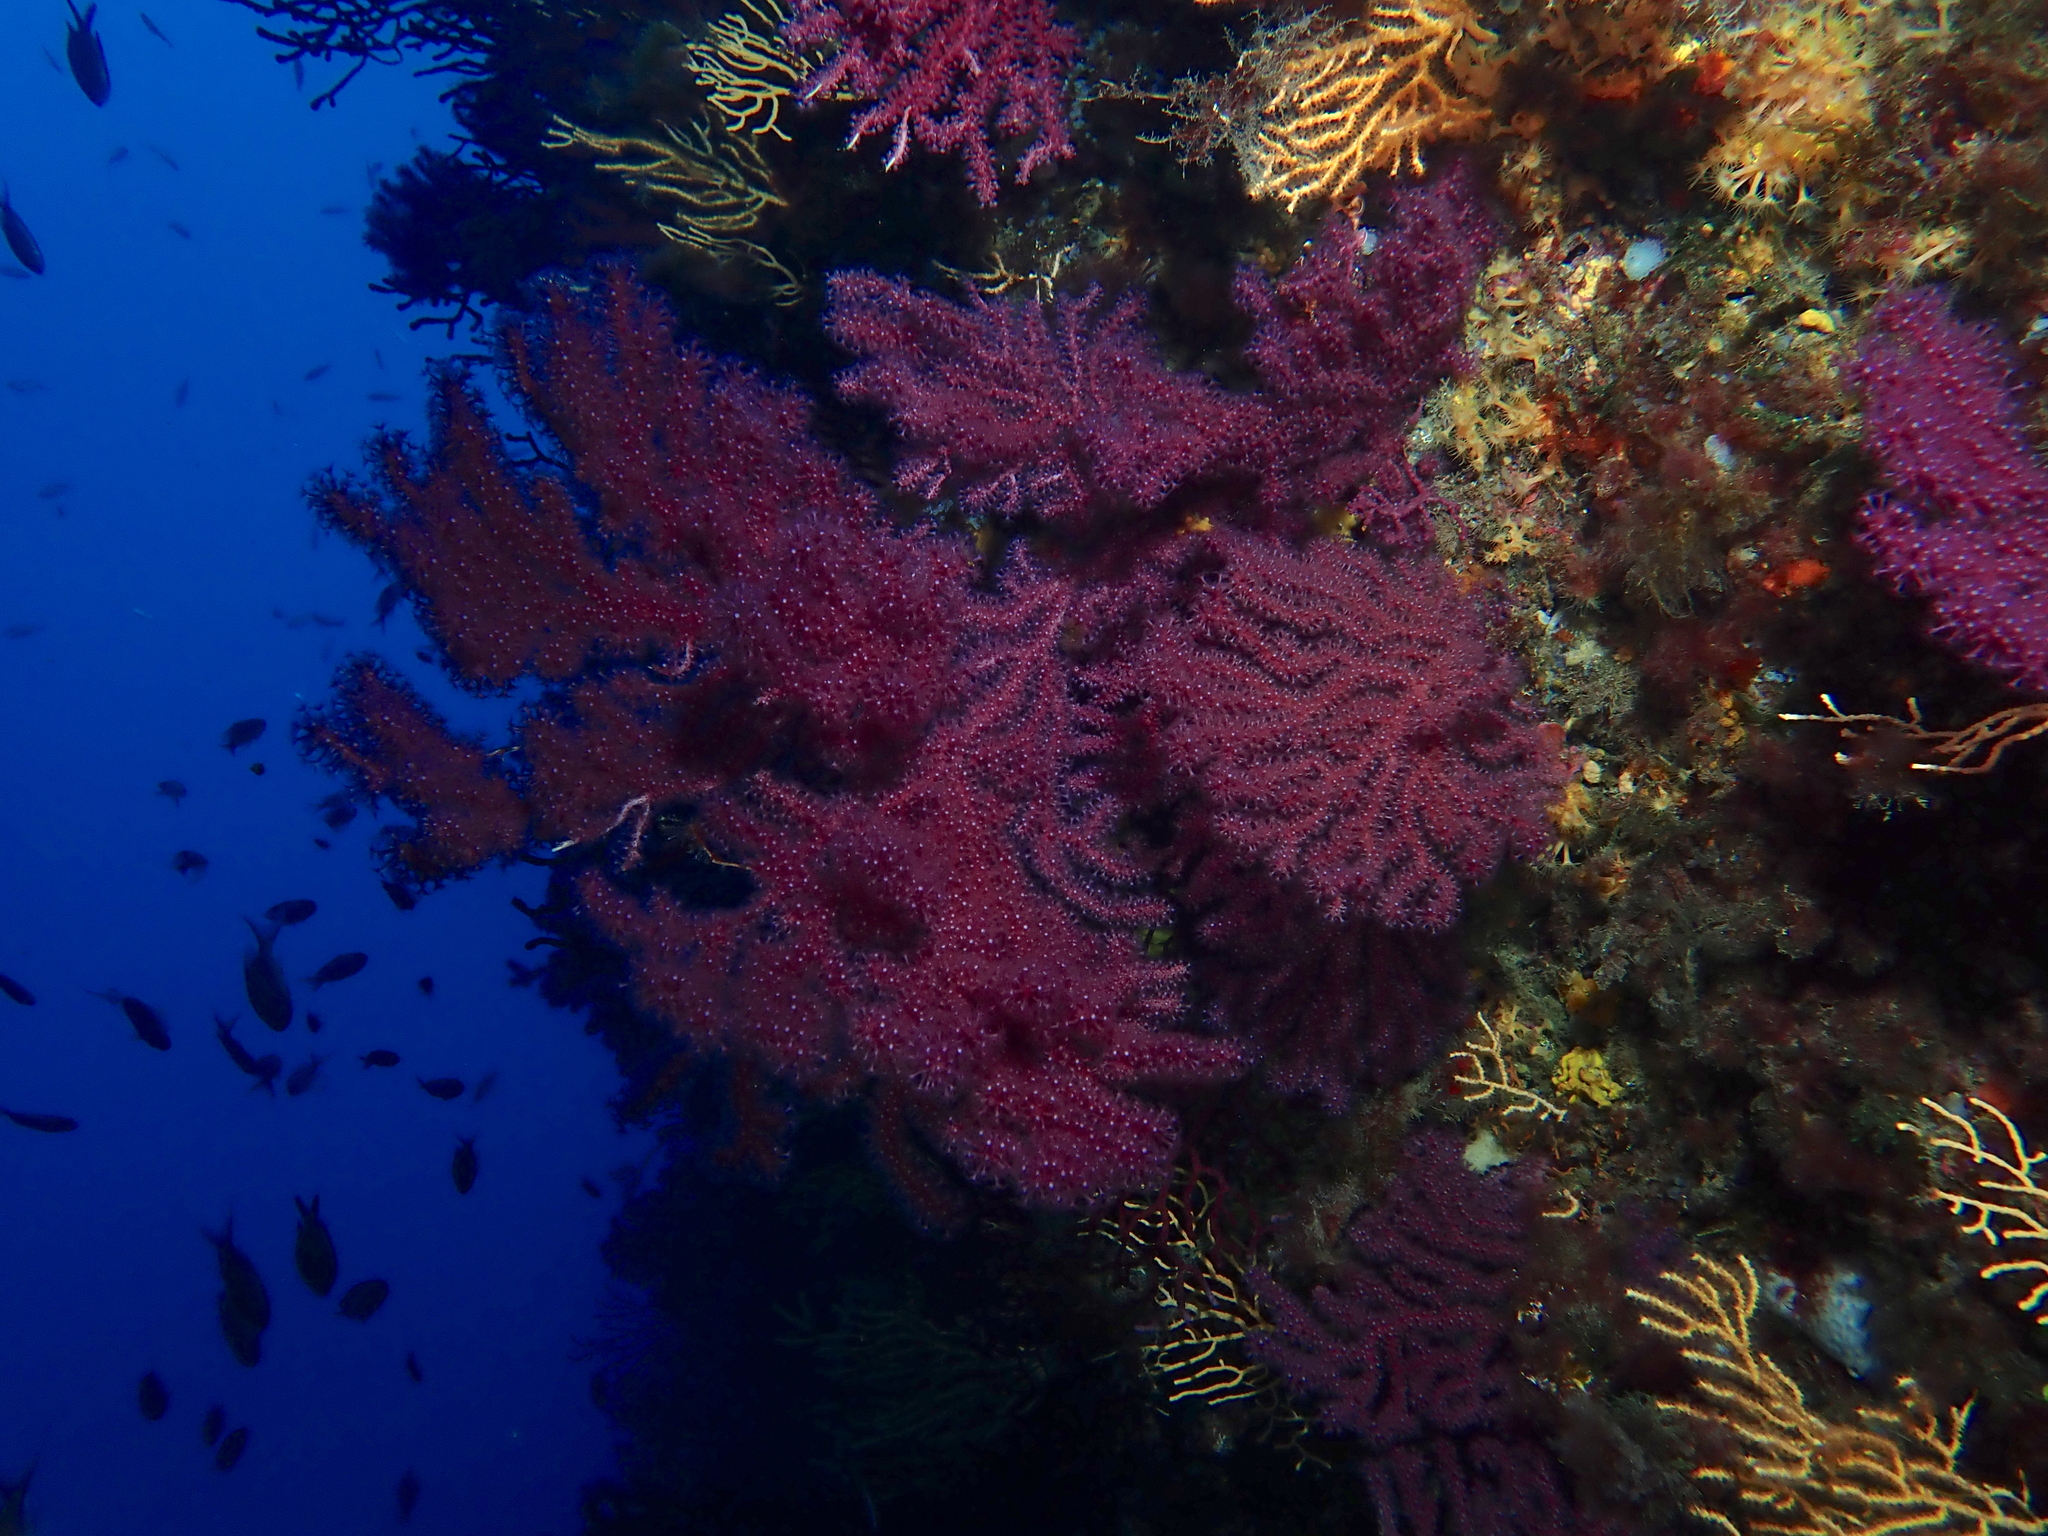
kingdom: Animalia
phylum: Cnidaria
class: Anthozoa
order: Malacalcyonacea
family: Paramuriceidae
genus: Paramuricea
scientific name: Paramuricea clavata
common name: Violescent sea-whip
